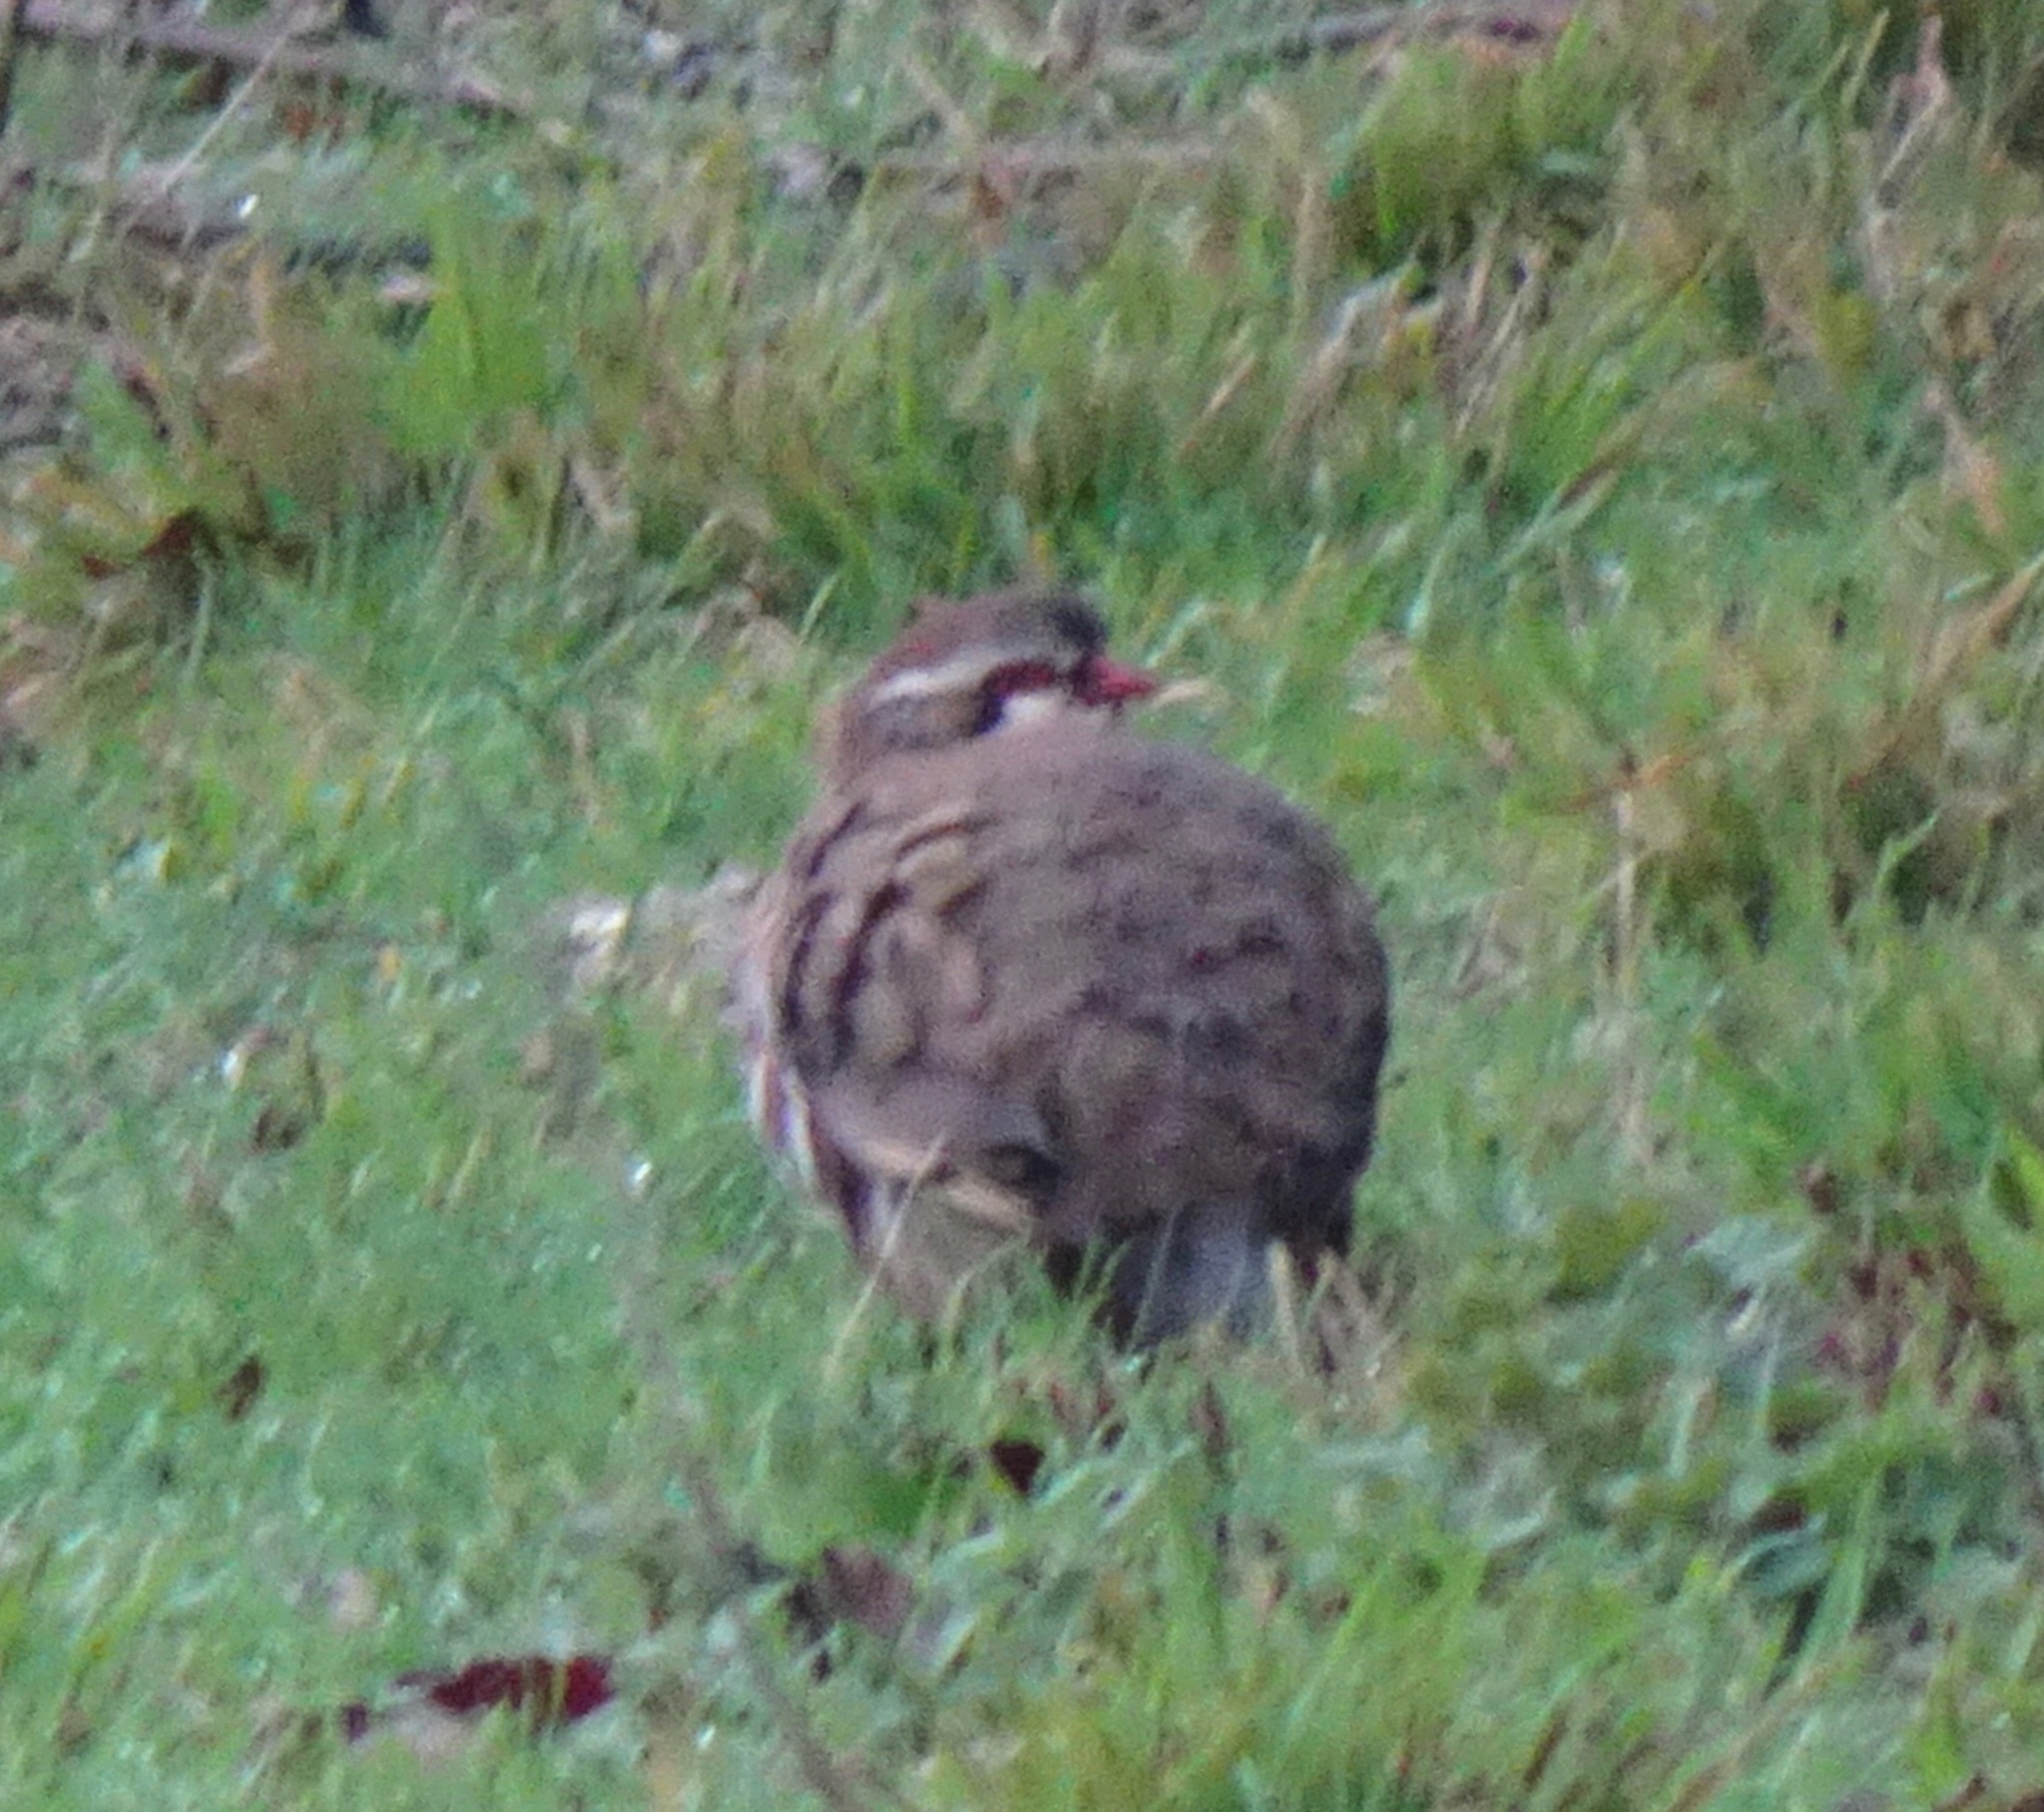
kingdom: Animalia
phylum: Chordata
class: Aves
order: Galliformes
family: Phasianidae
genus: Alectoris
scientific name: Alectoris rufa
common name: Red-legged partridge
